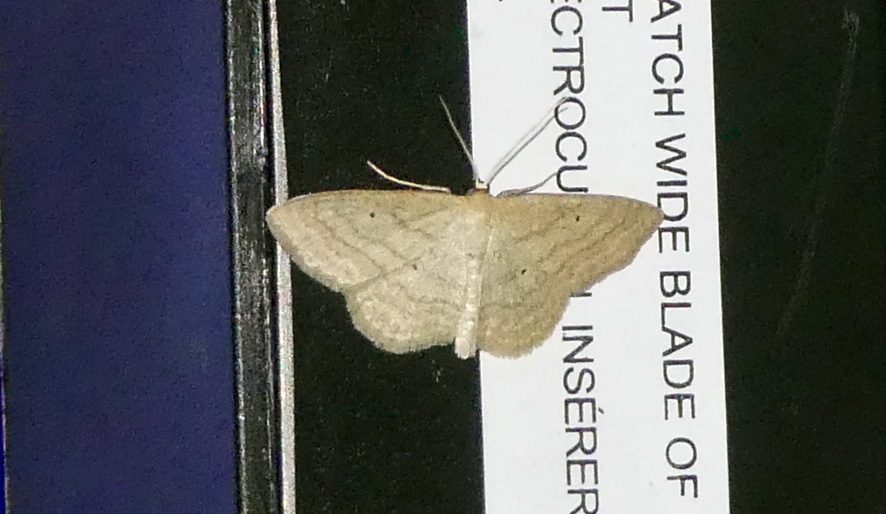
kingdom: Animalia
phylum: Arthropoda
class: Insecta
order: Lepidoptera
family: Geometridae
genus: Scopula
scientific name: Scopula inductata
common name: Soft-lined wave
